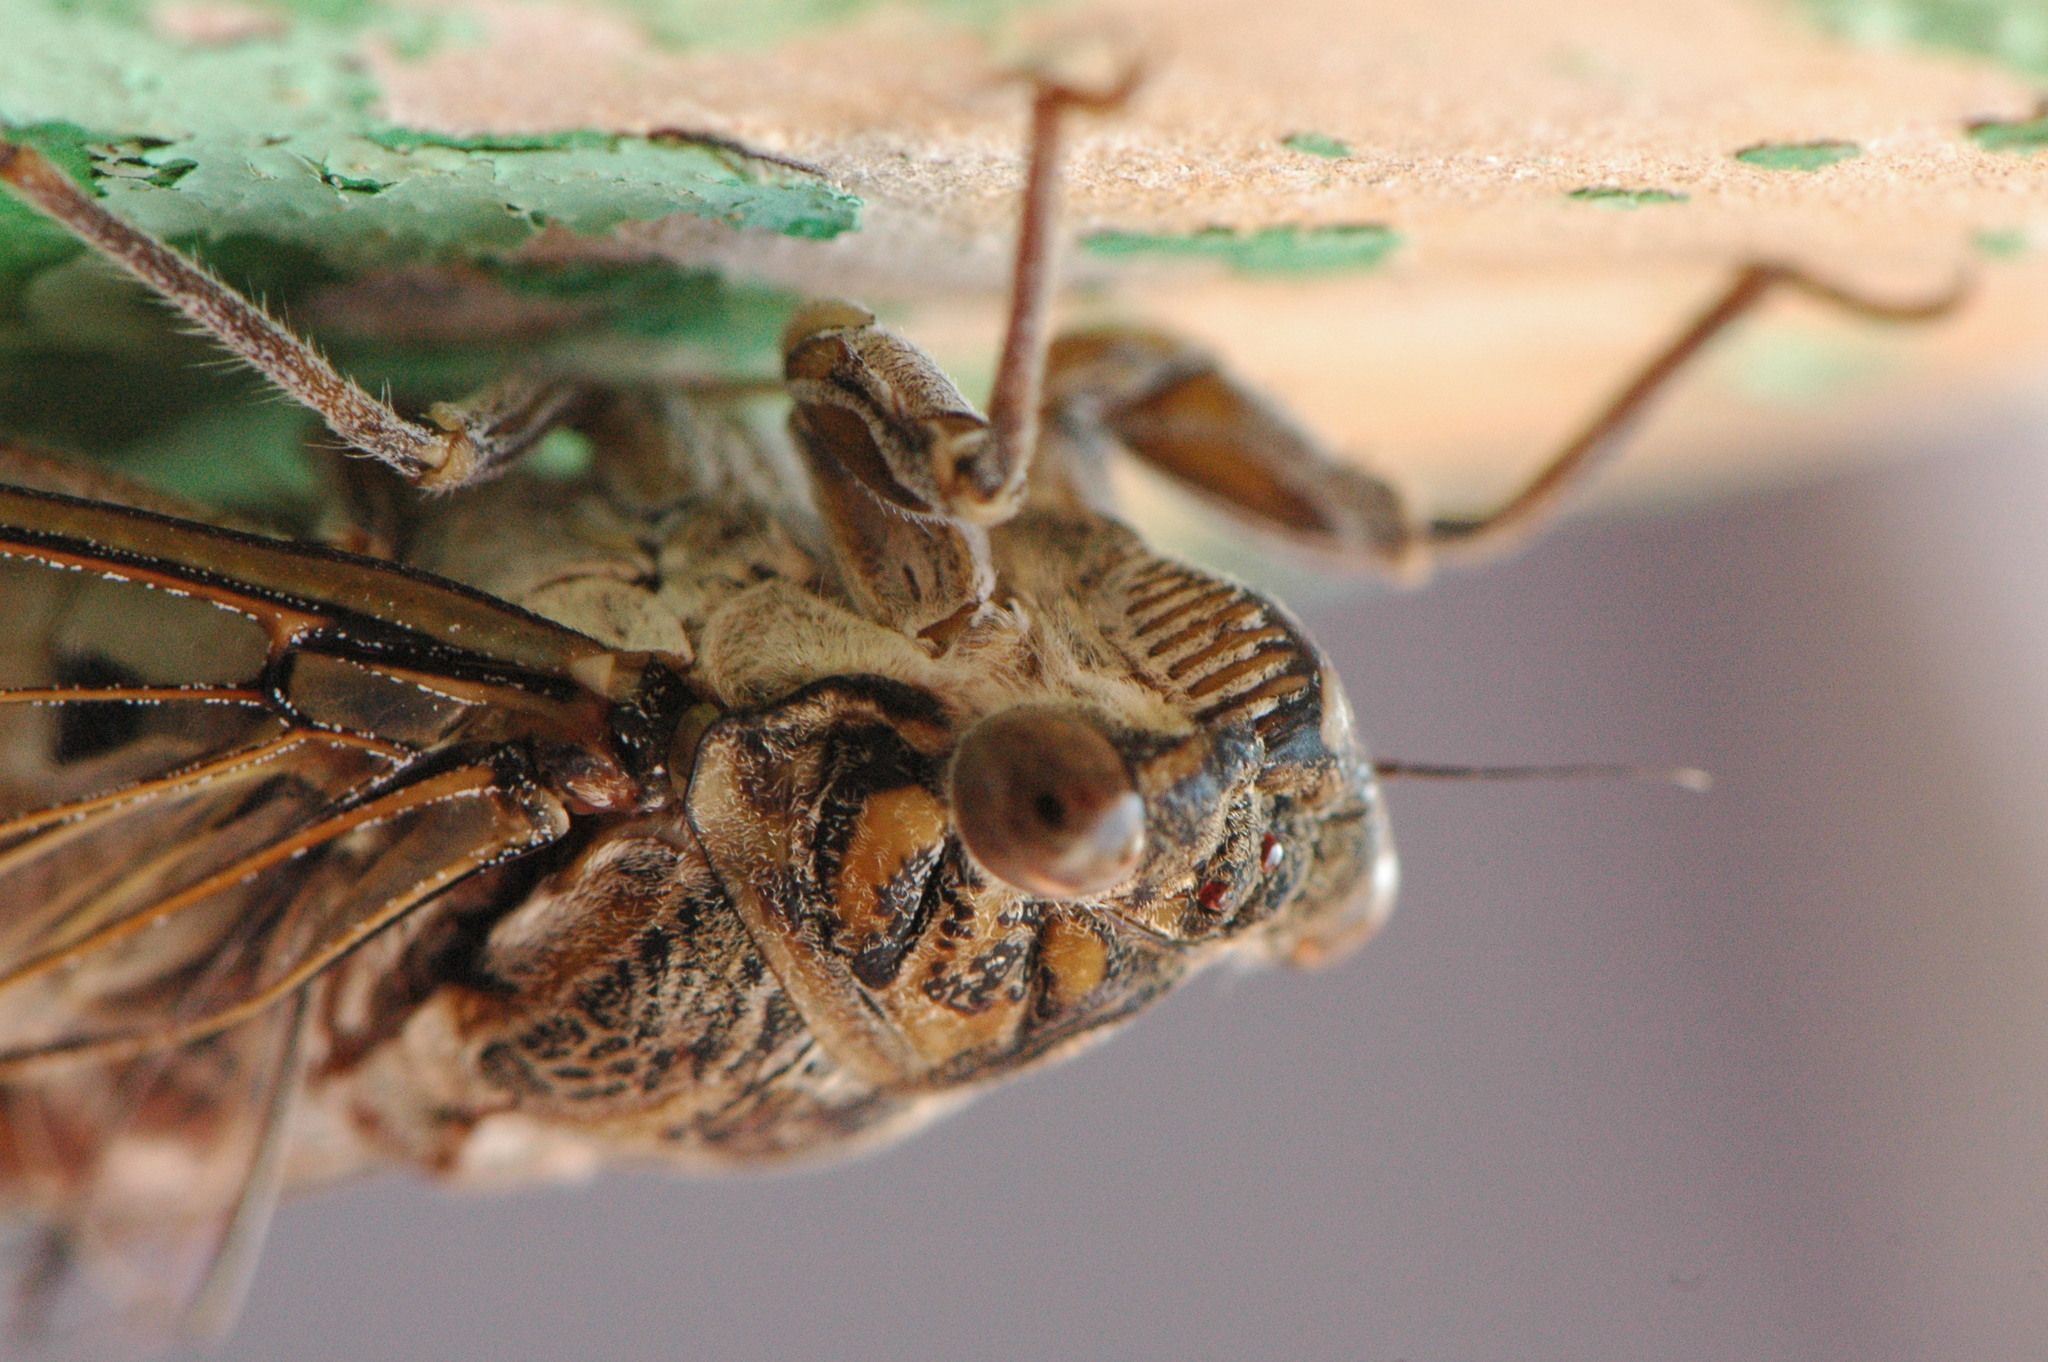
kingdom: Animalia
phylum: Arthropoda
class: Insecta
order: Hemiptera
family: Cicadidae
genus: Cicada
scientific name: Cicada barbara
